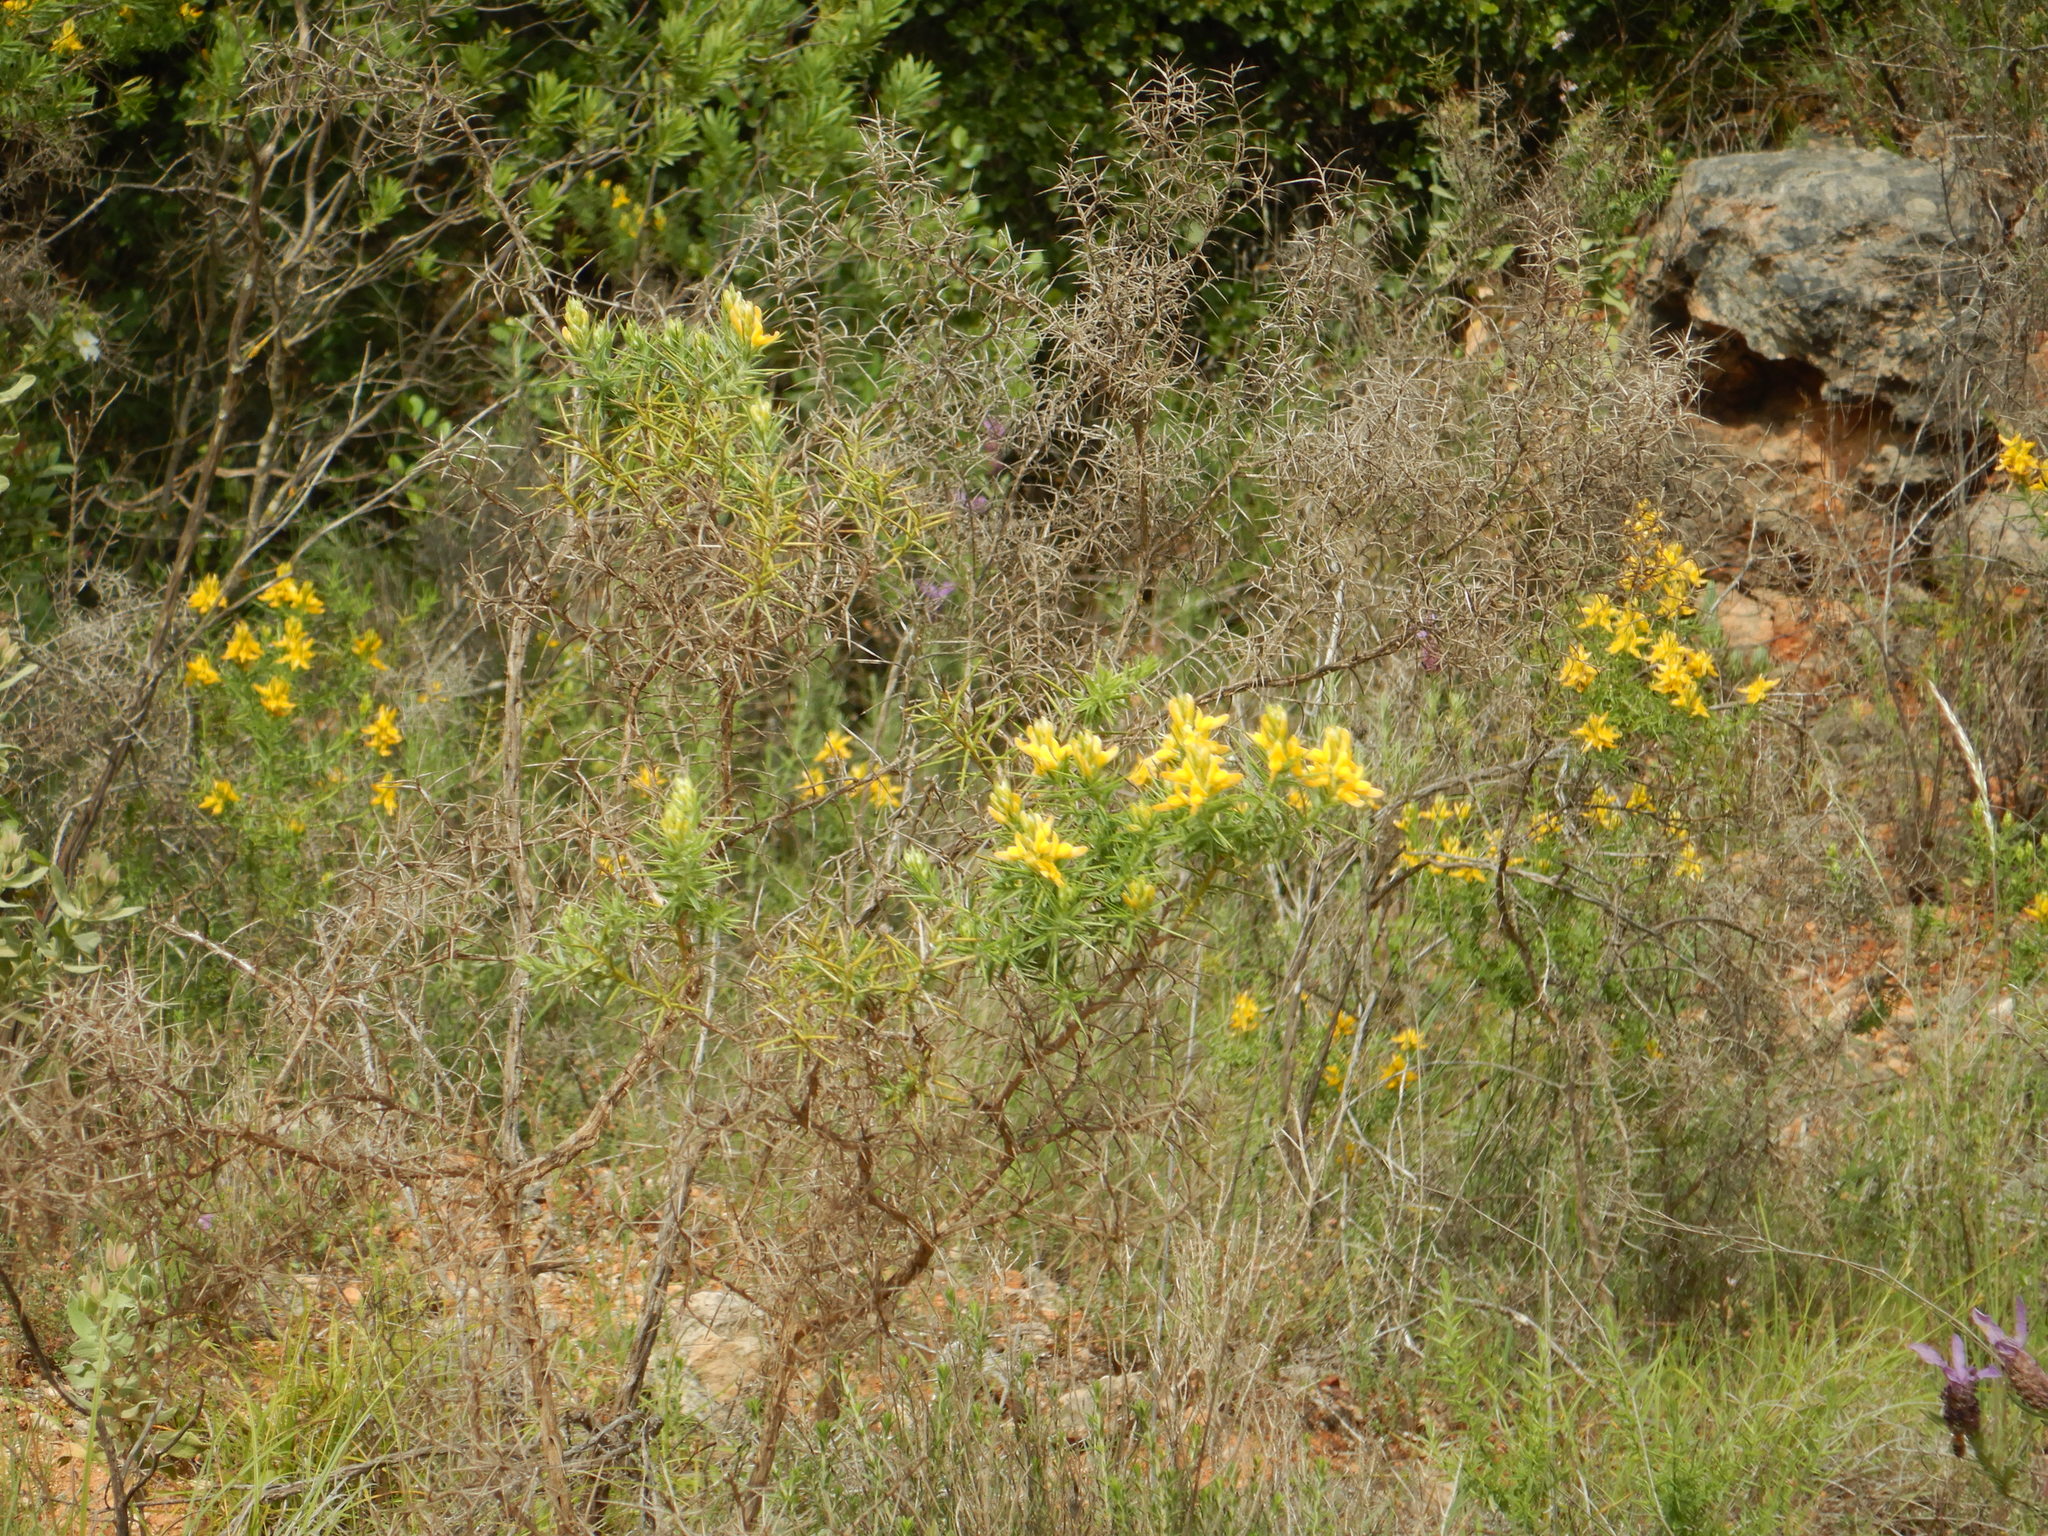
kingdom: Plantae
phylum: Tracheophyta
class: Magnoliopsida
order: Fabales
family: Fabaceae
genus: Genista
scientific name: Genista hirsuta
